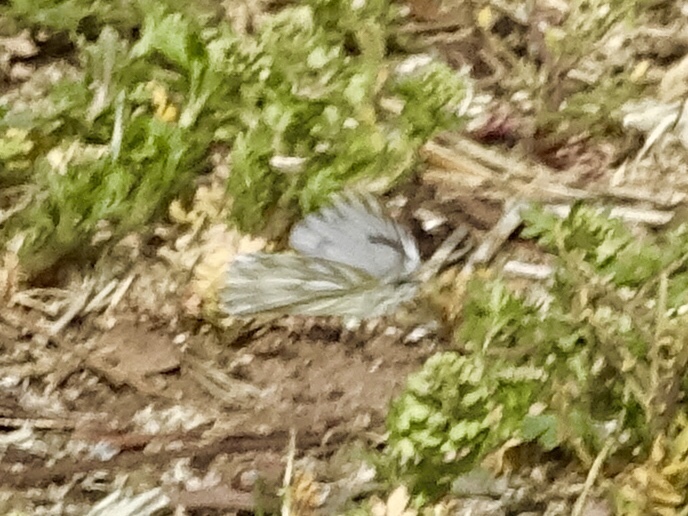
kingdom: Animalia
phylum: Arthropoda
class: Insecta
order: Lepidoptera
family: Pieridae
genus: Pontia
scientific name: Pontia protodice
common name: Checkered white
